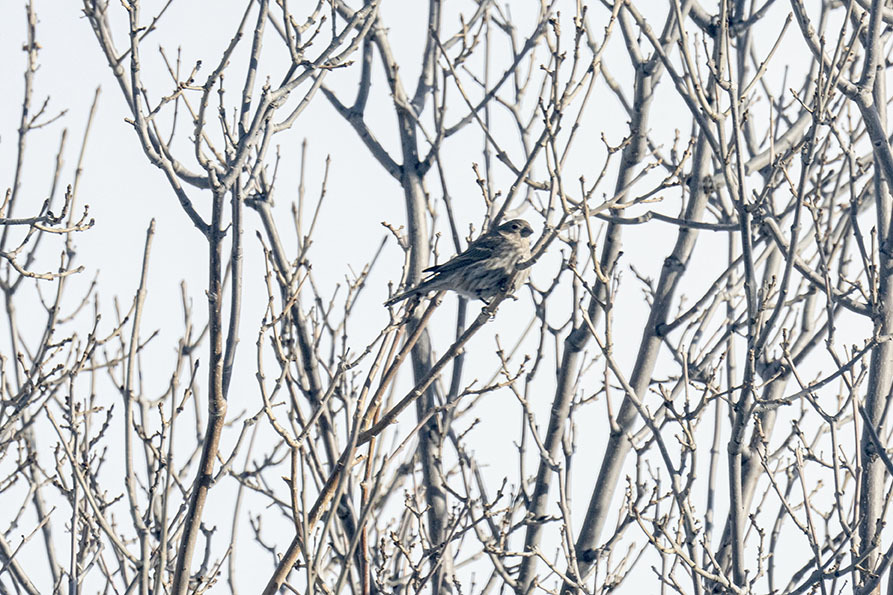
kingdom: Animalia
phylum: Chordata
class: Aves
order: Passeriformes
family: Fringillidae
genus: Haemorhous
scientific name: Haemorhous mexicanus
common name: House finch
